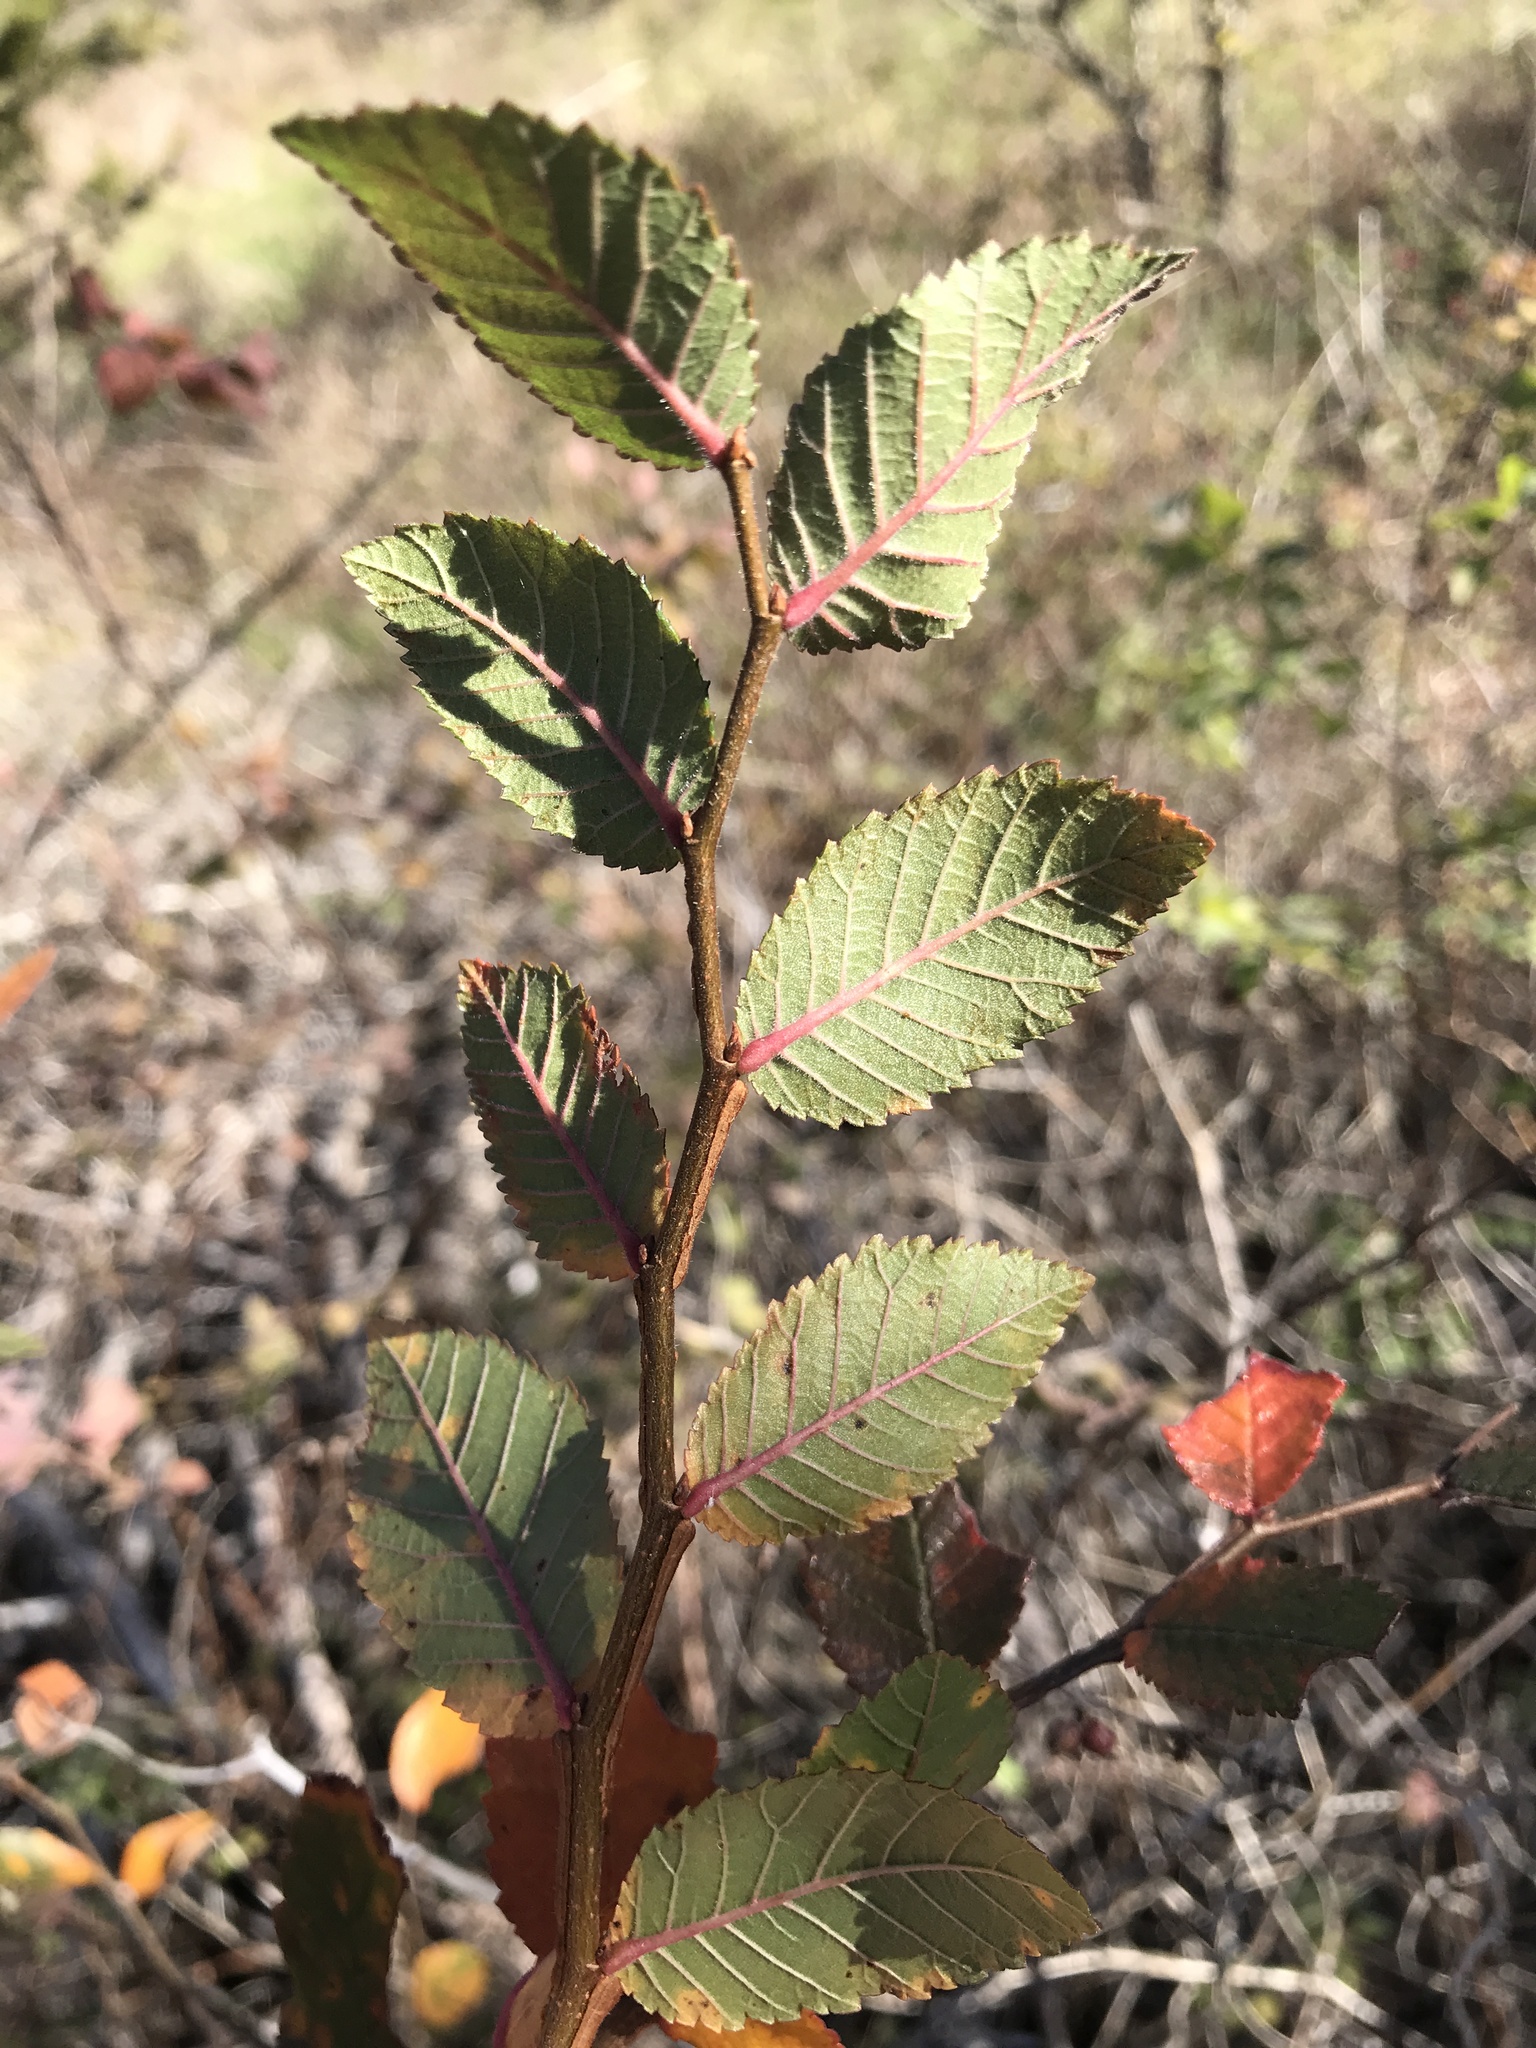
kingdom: Plantae
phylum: Tracheophyta
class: Magnoliopsida
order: Rosales
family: Ulmaceae
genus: Ulmus
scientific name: Ulmus crassifolia
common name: Basket elm
